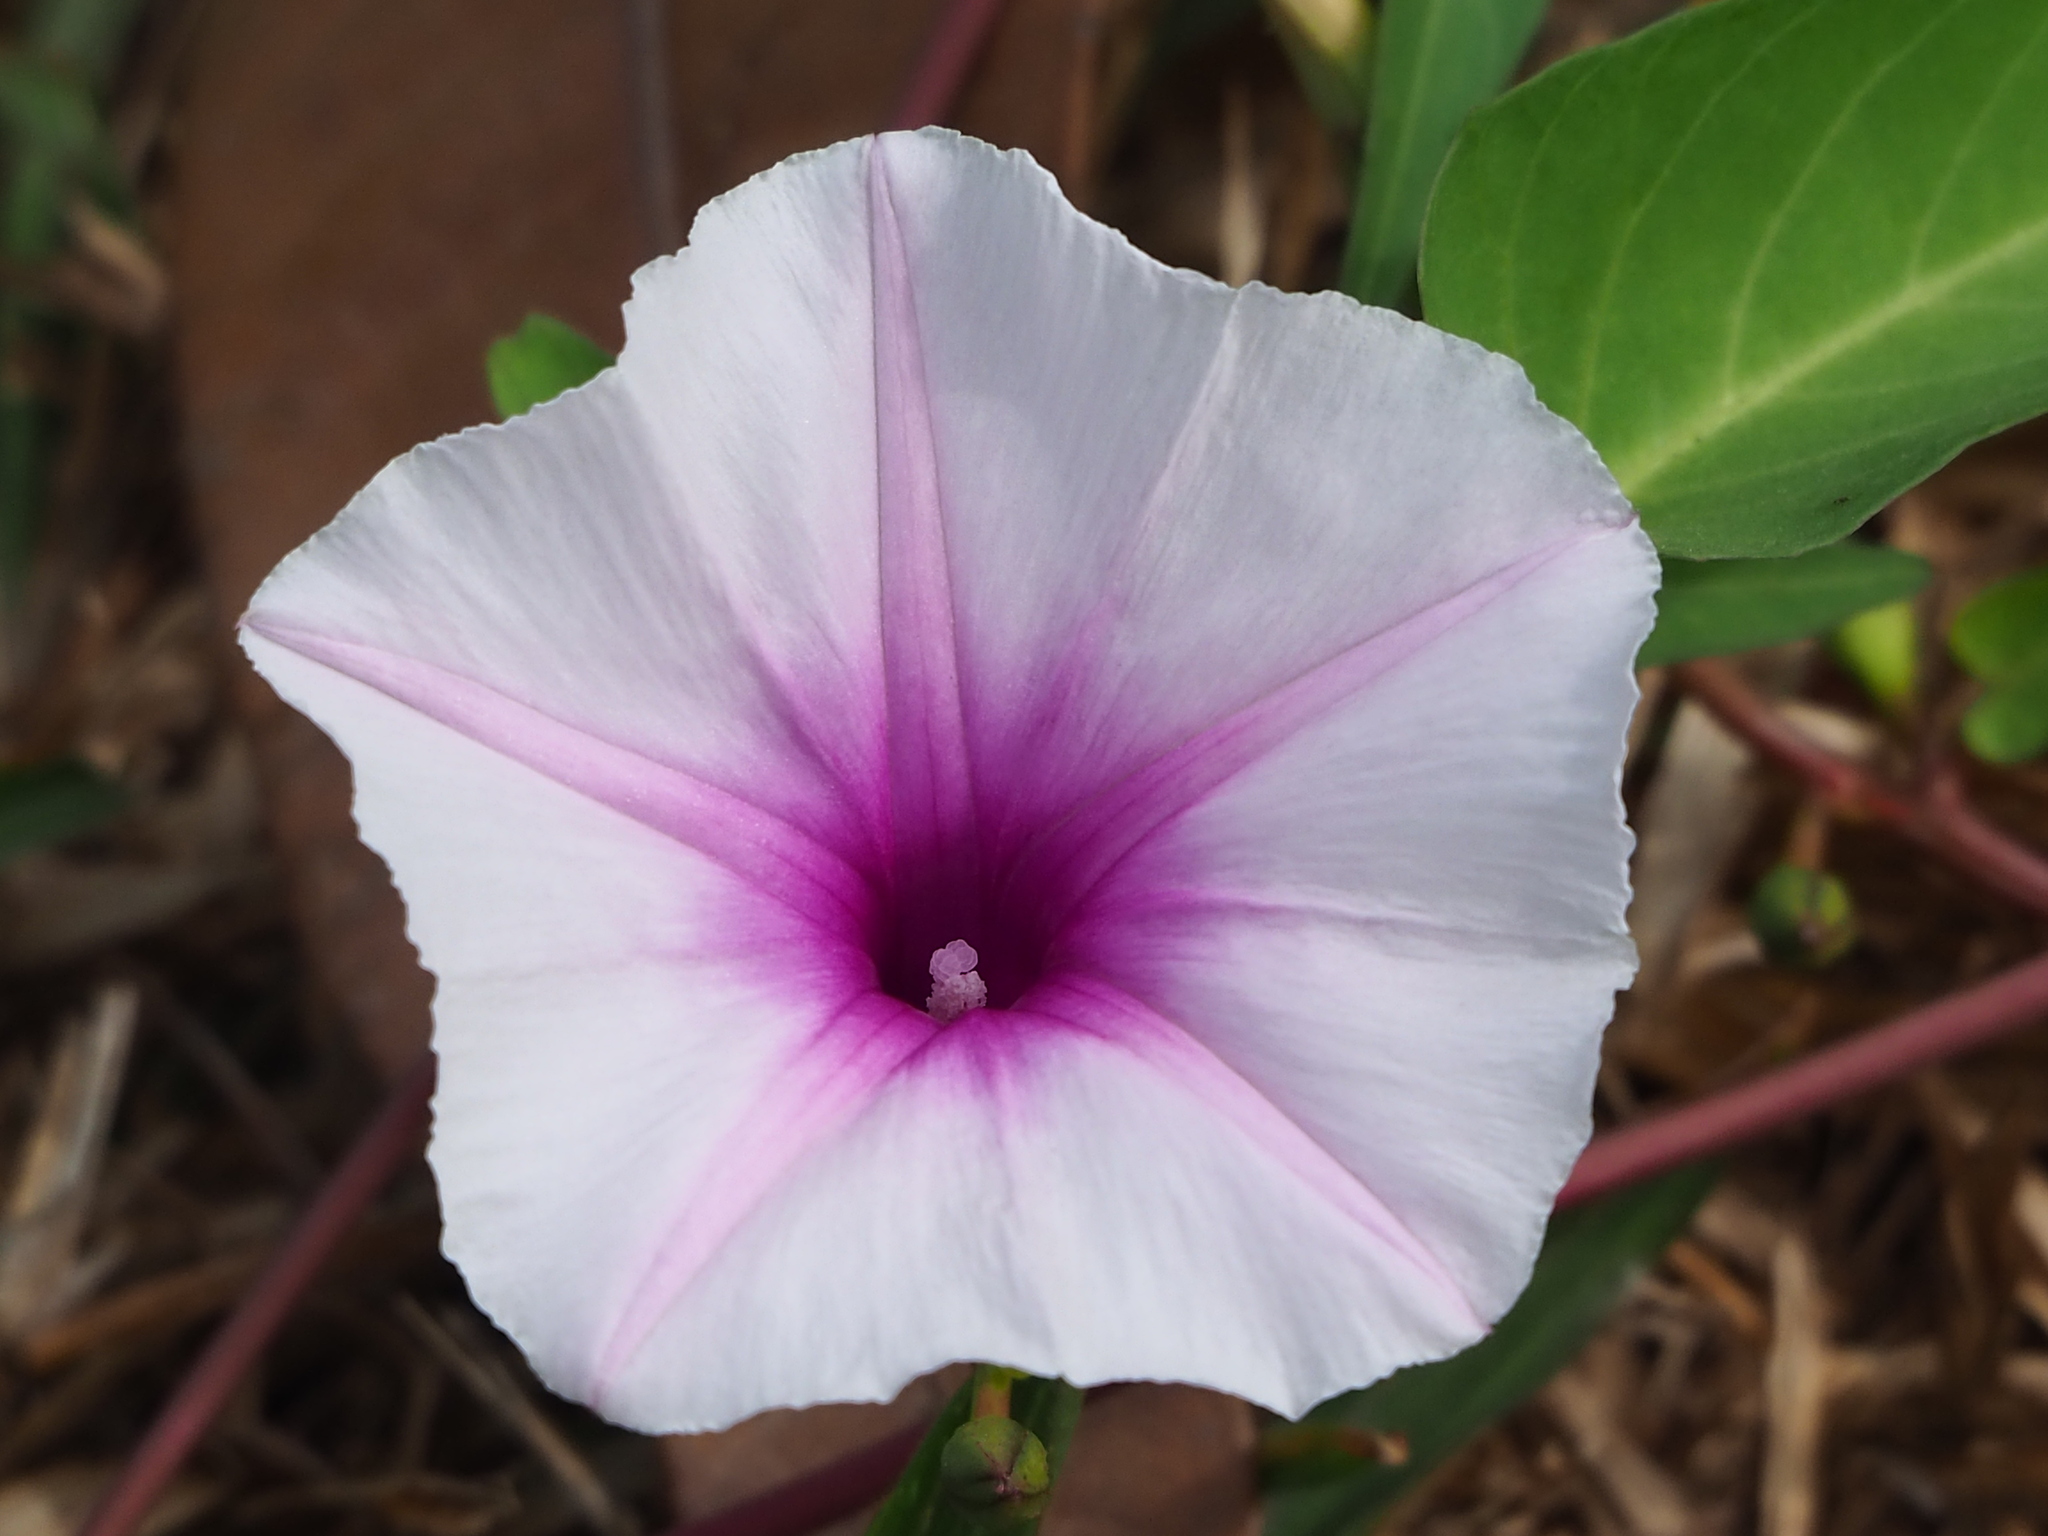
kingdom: Plantae
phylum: Tracheophyta
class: Magnoliopsida
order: Solanales
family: Convolvulaceae
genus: Ipomoea
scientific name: Ipomoea aquatica
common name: Swamp morning-glory
